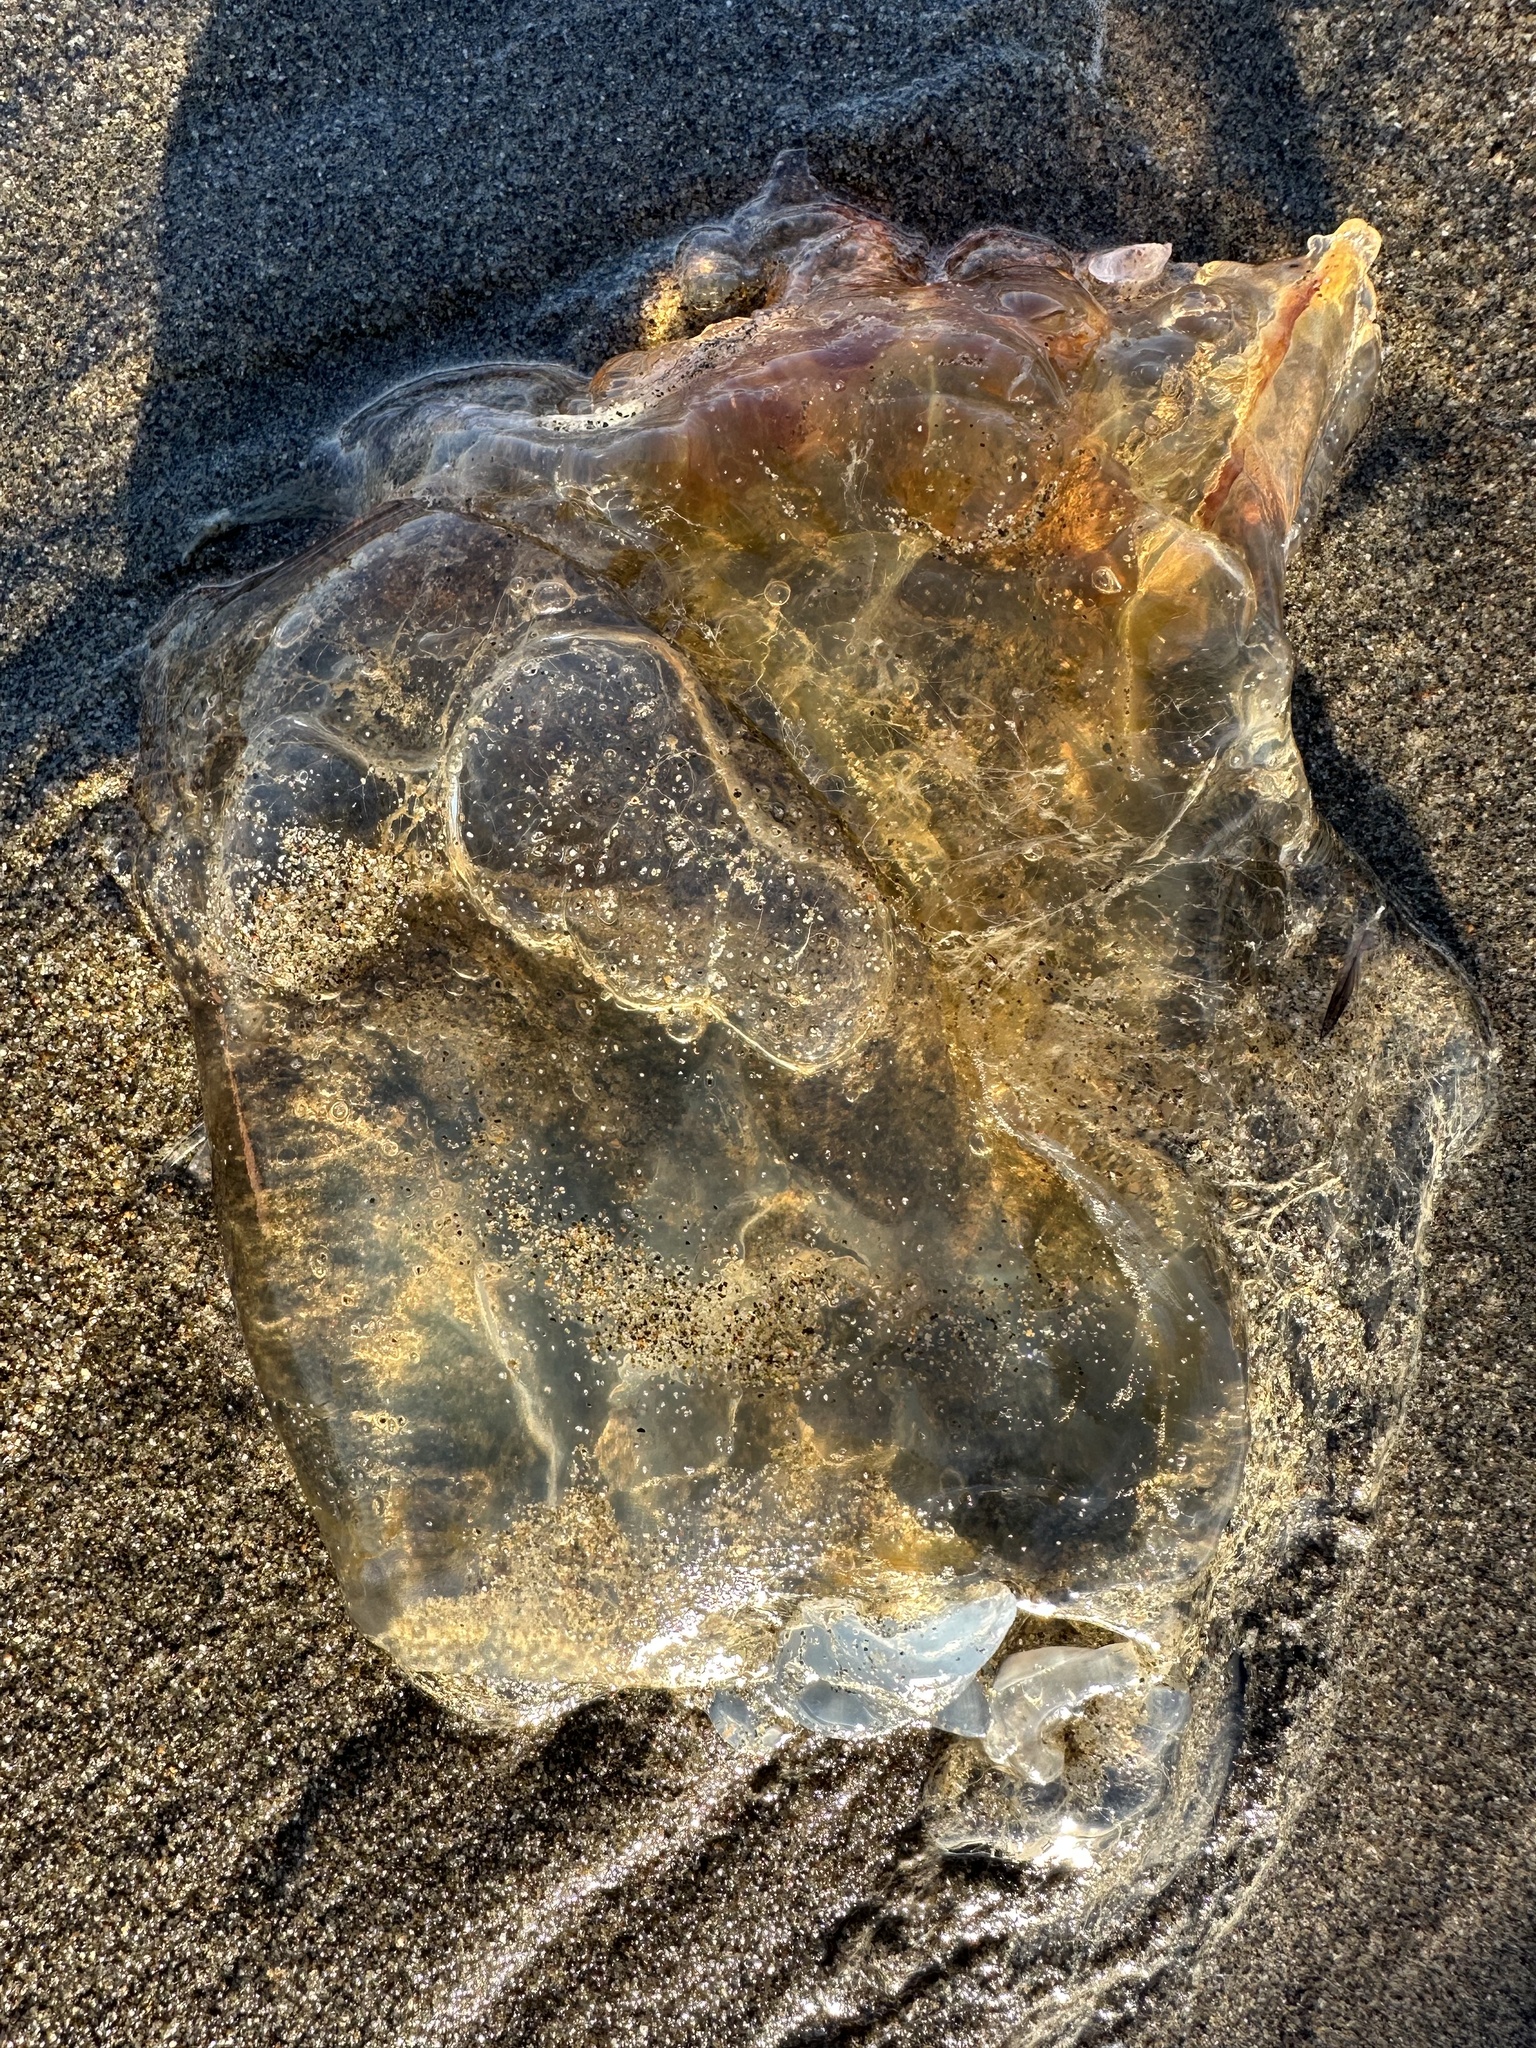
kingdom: Animalia
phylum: Cnidaria
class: Scyphozoa
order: Semaeostomeae
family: Pelagiidae
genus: Chrysaora
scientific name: Chrysaora fuscescens
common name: Sea nettle
